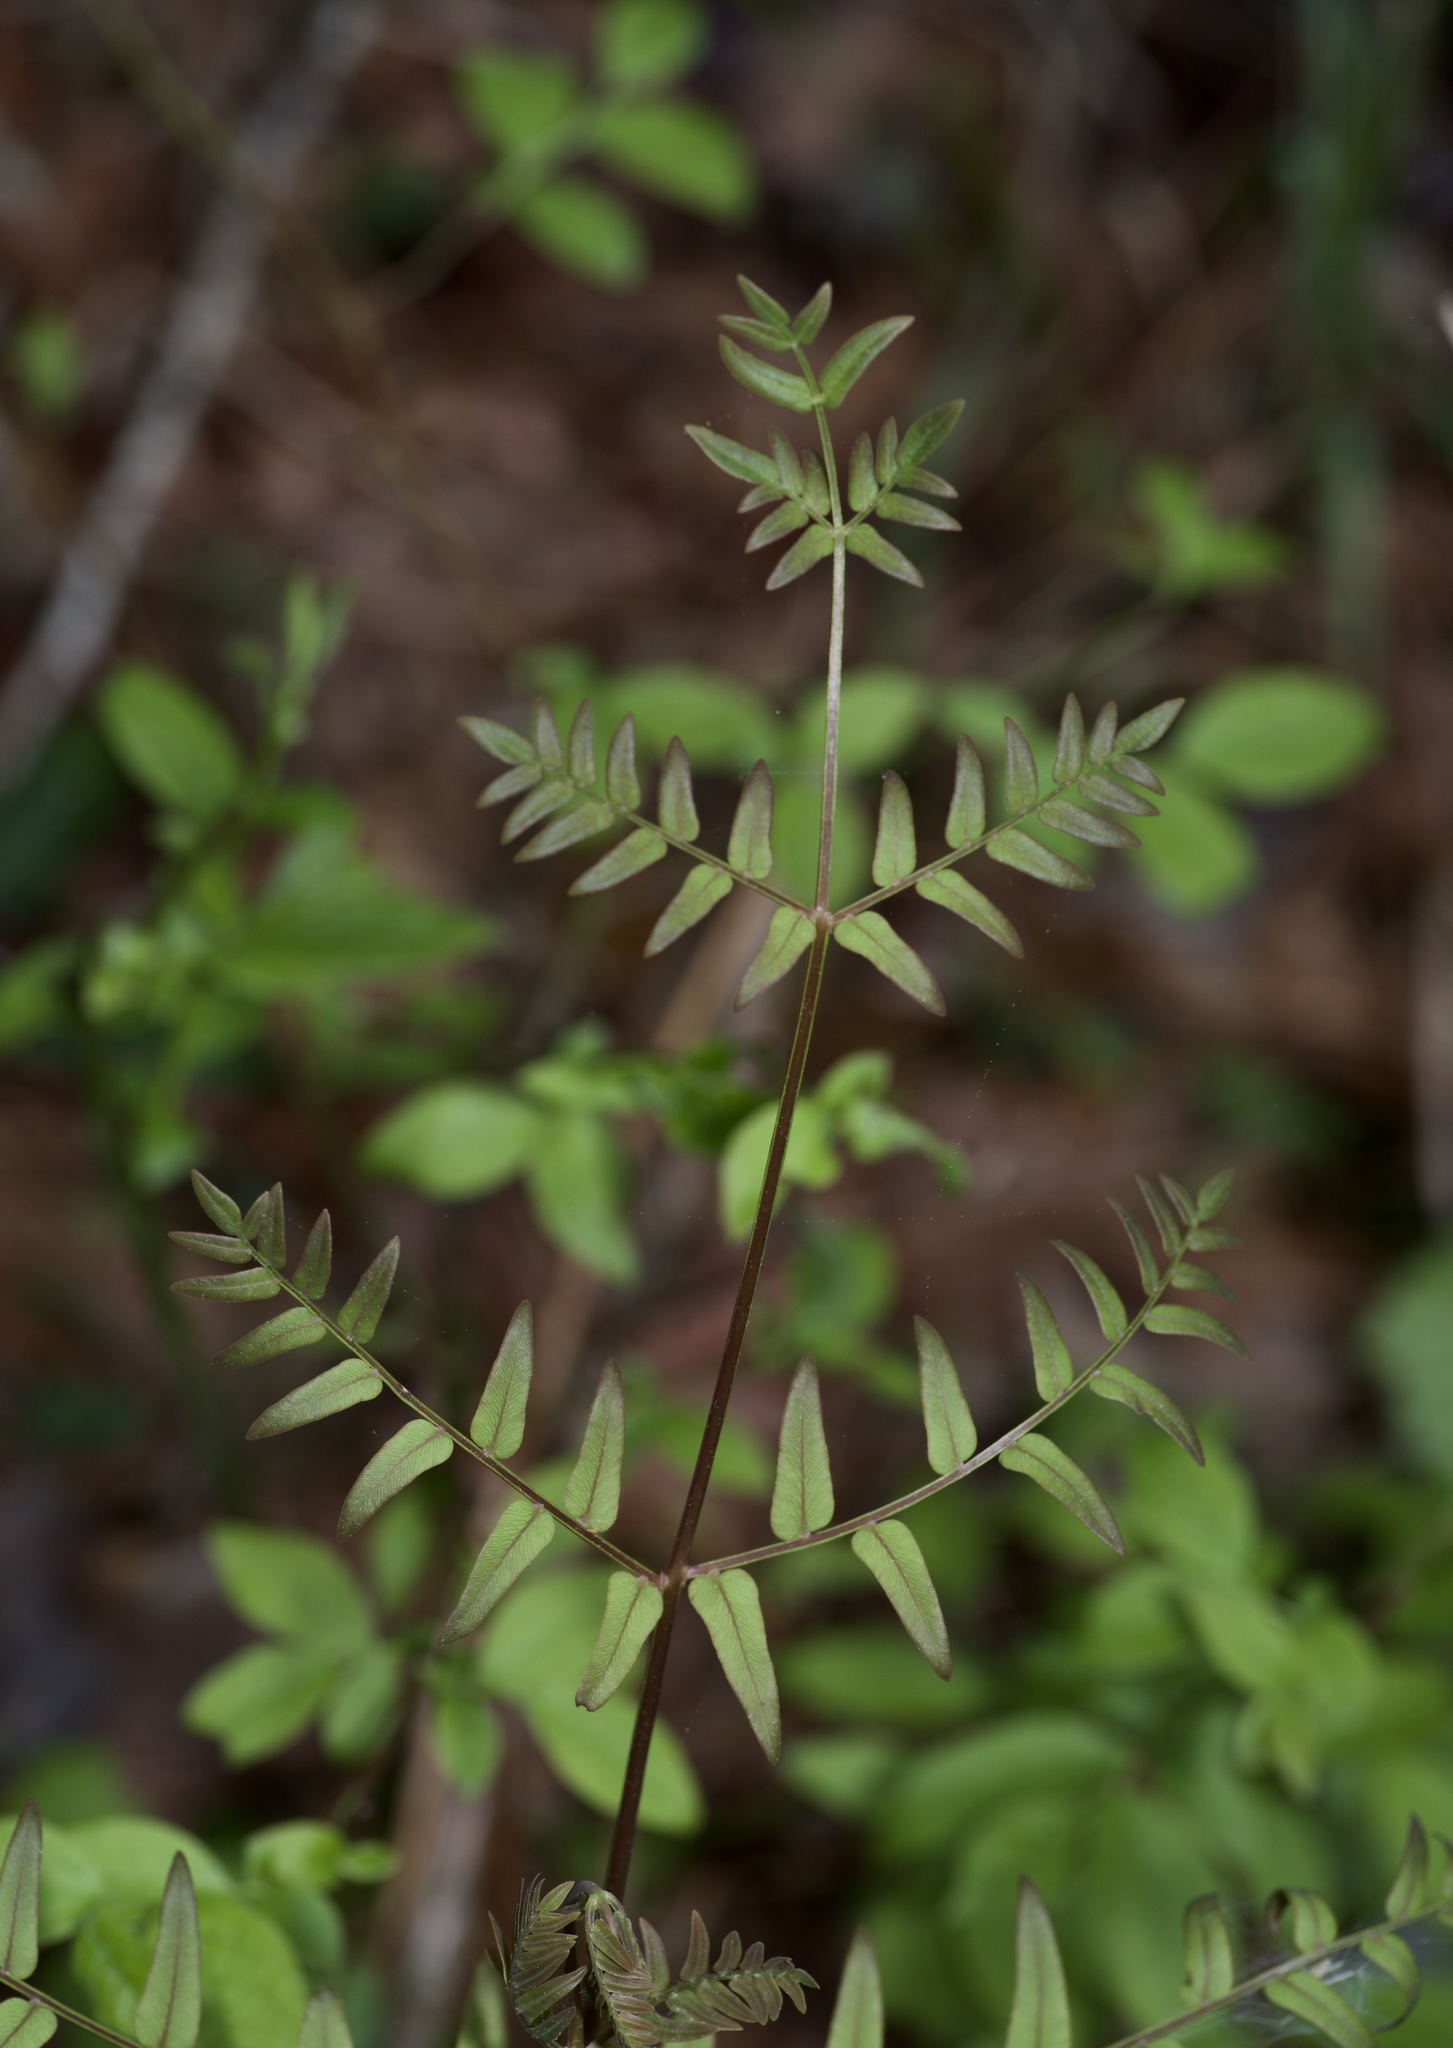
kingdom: Plantae
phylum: Tracheophyta
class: Polypodiopsida
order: Osmundales
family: Osmundaceae
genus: Osmunda
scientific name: Osmunda spectabilis
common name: American royal fern
